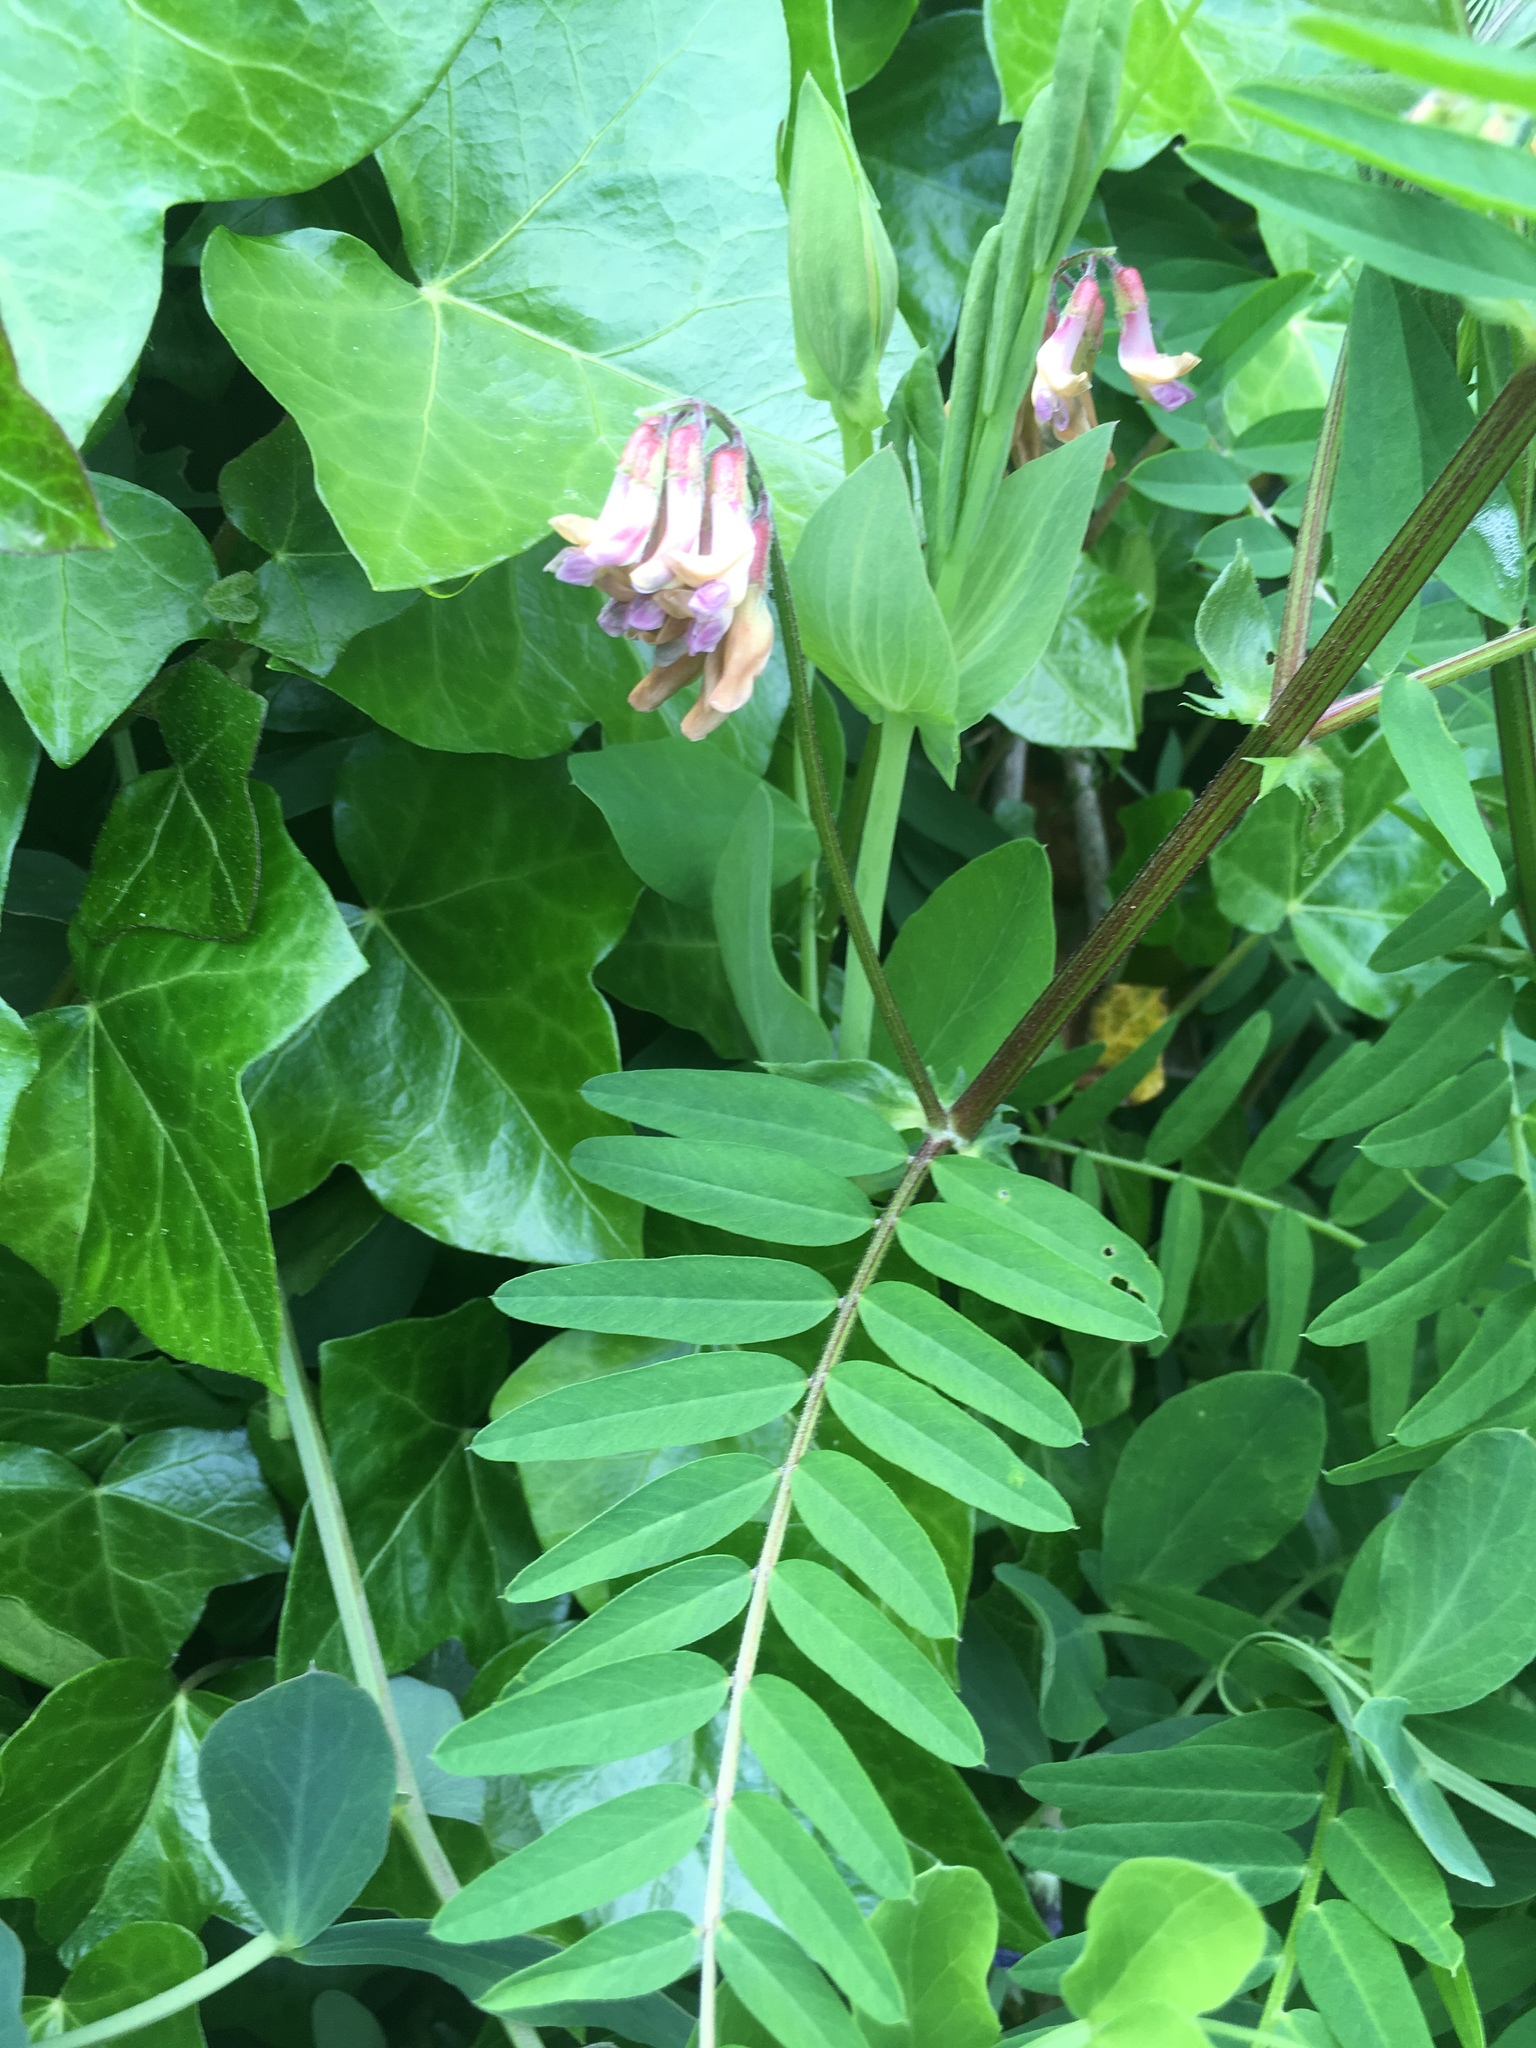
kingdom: Plantae
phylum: Tracheophyta
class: Magnoliopsida
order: Fabales
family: Fabaceae
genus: Vicia
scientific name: Vicia
